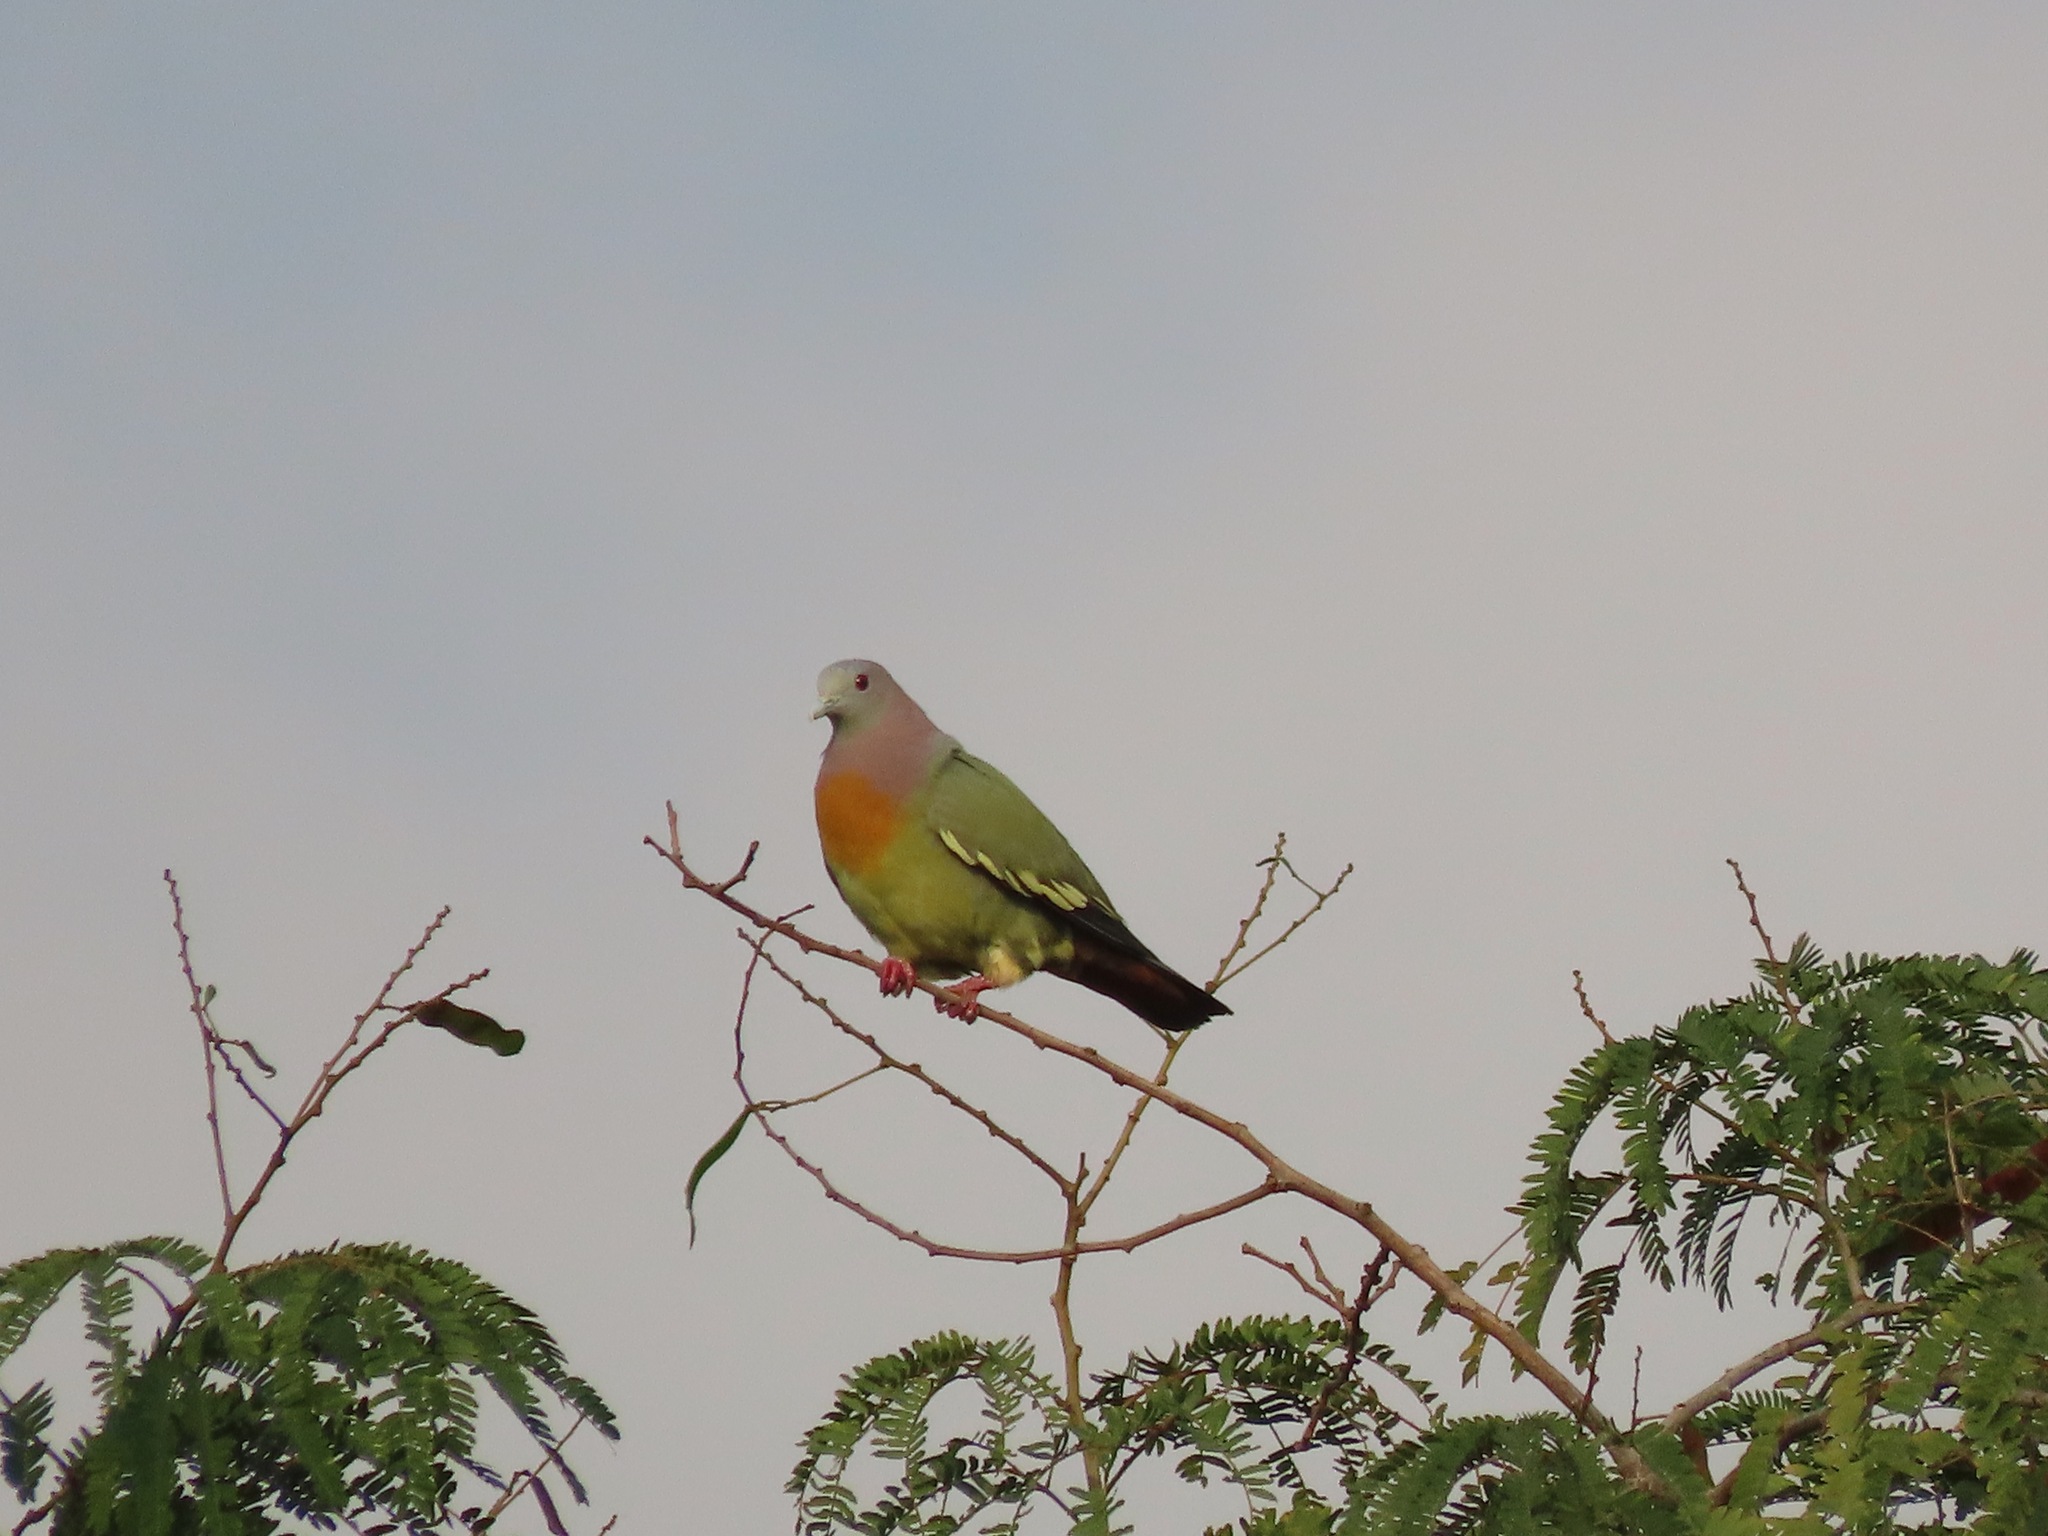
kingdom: Animalia
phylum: Chordata
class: Aves
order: Columbiformes
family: Columbidae
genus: Treron
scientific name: Treron vernans
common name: Pink-necked green pigeon
